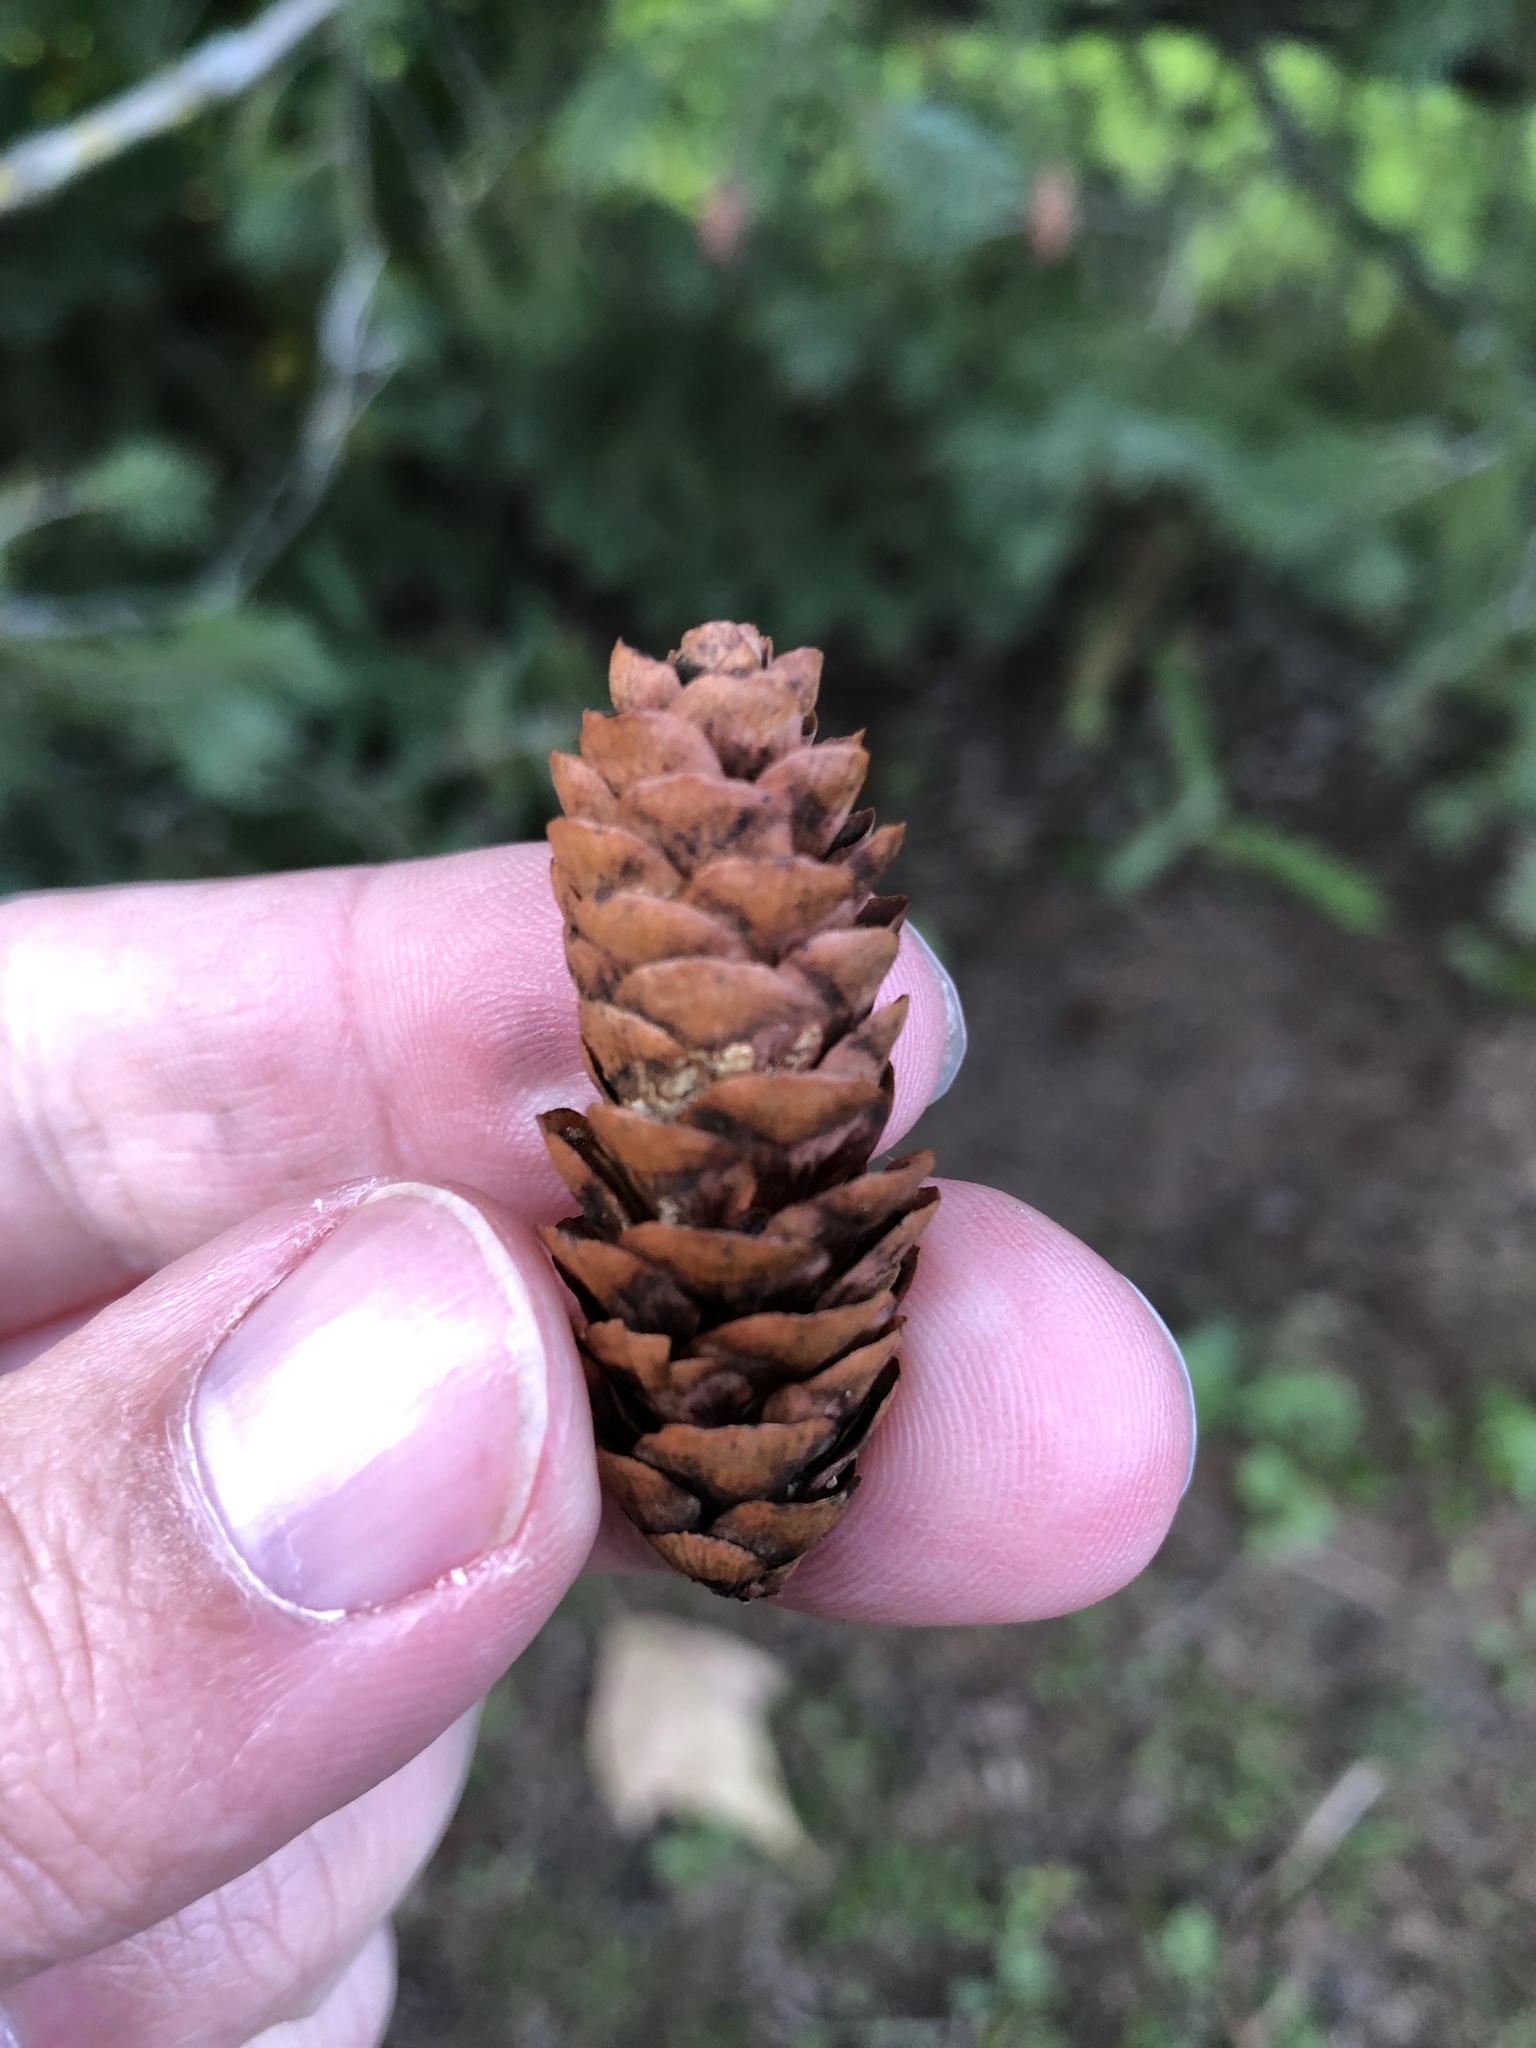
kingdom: Plantae
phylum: Tracheophyta
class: Pinopsida
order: Pinales
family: Pinaceae
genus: Picea
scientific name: Picea glauca
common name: White spruce
